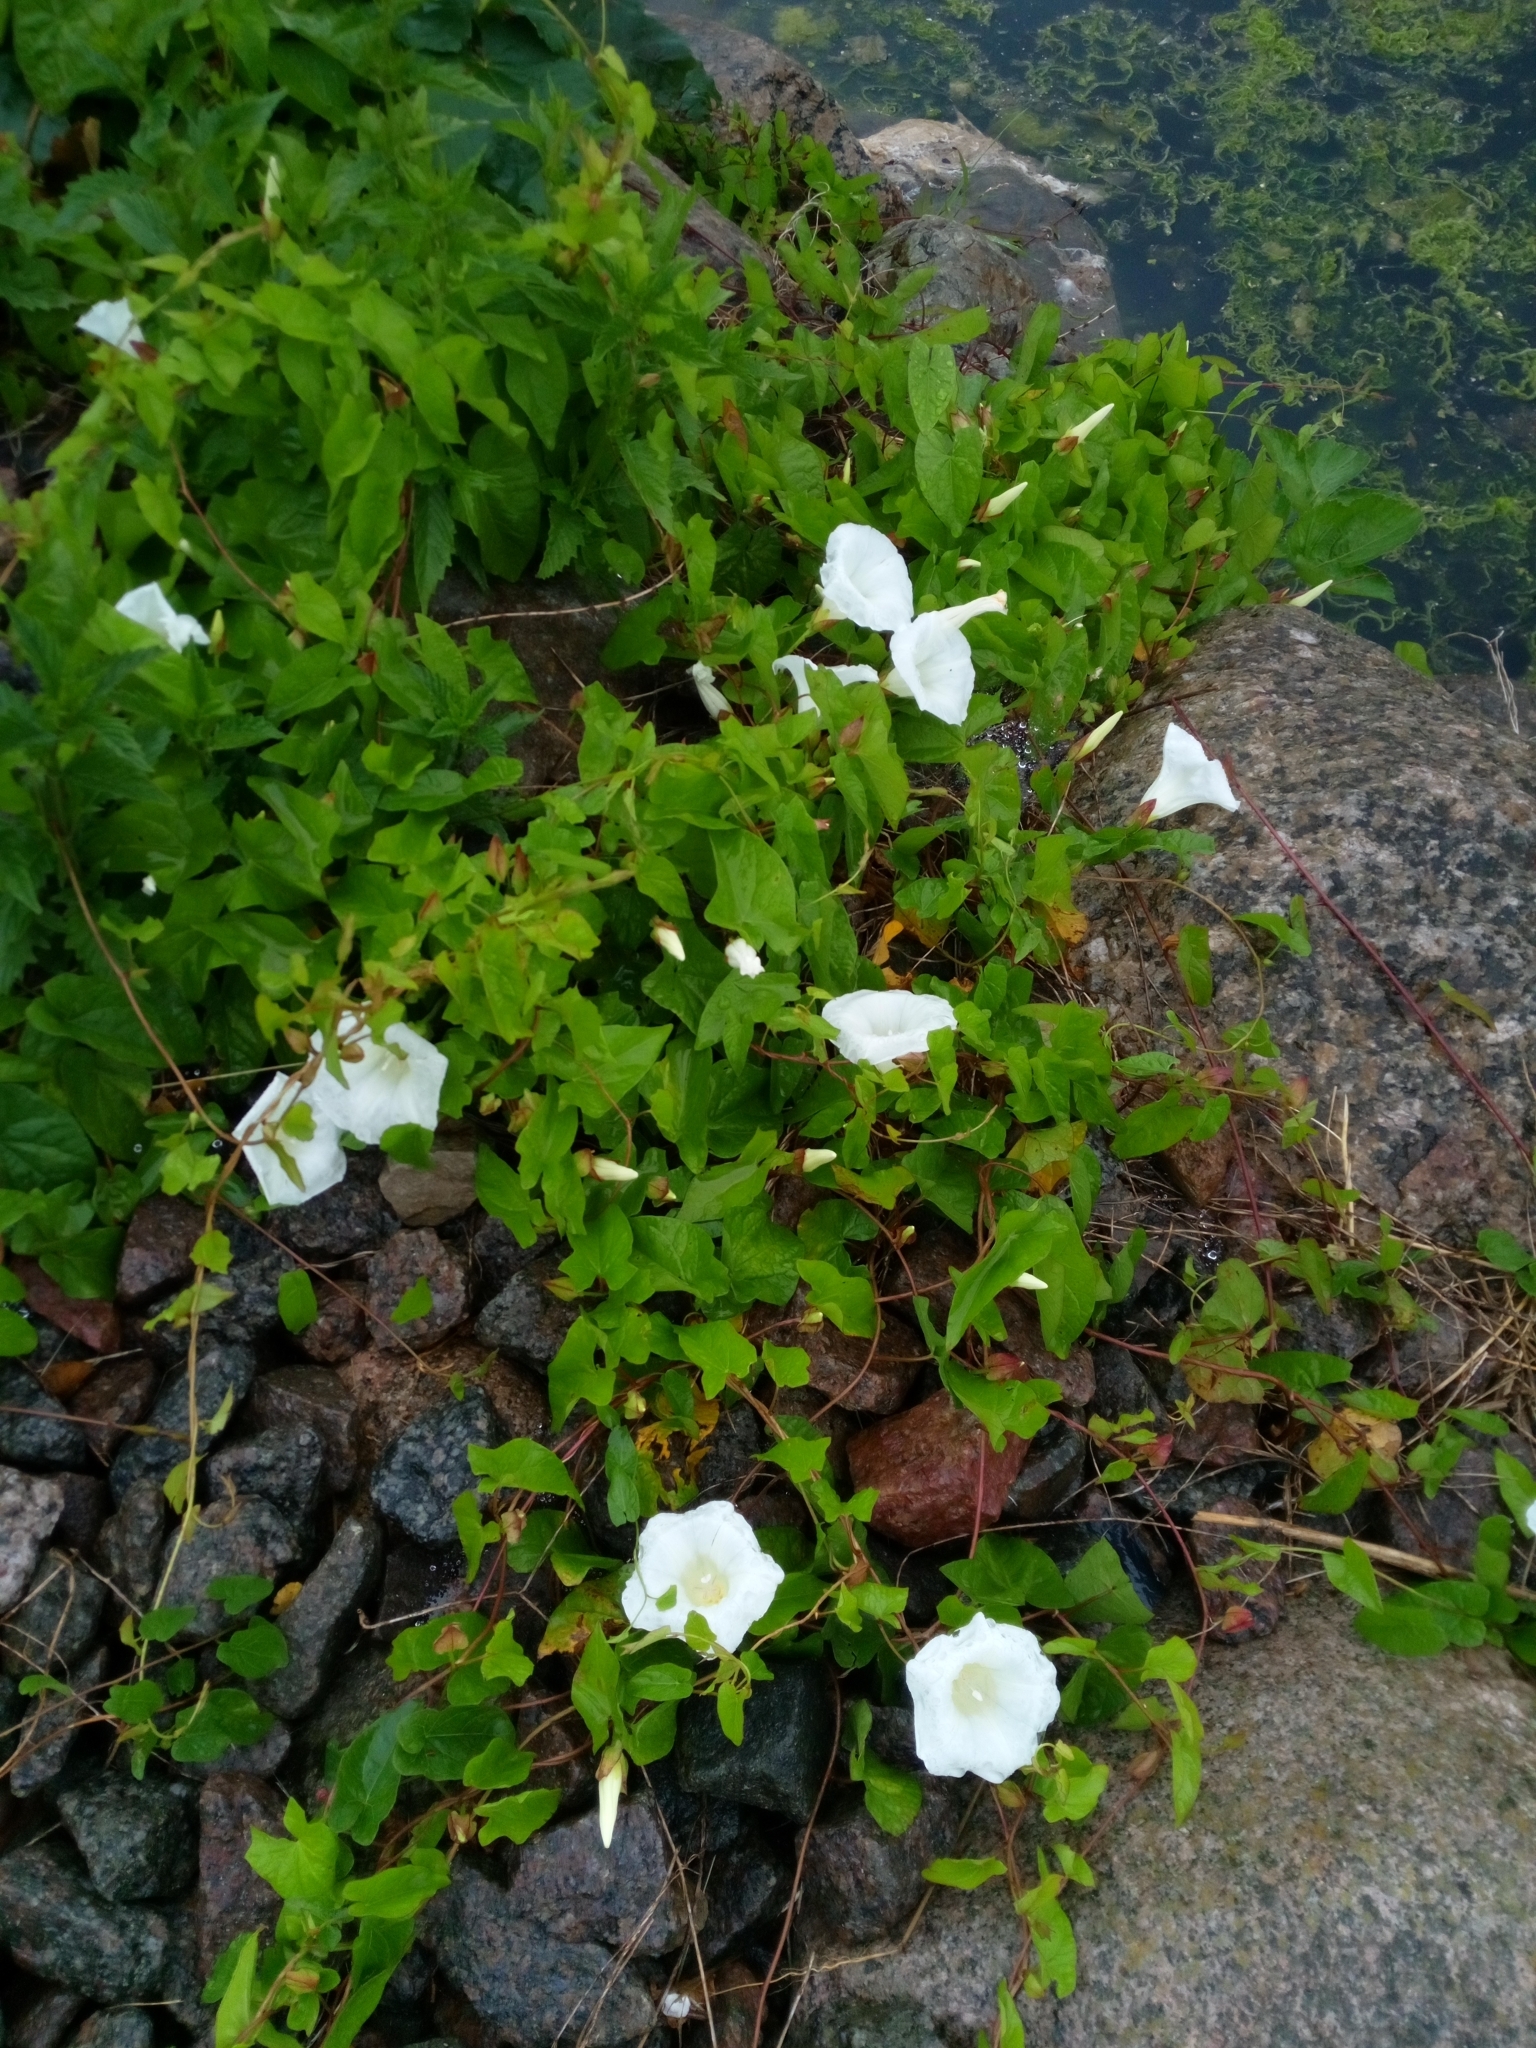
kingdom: Plantae
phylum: Tracheophyta
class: Magnoliopsida
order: Solanales
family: Convolvulaceae
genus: Calystegia
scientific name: Calystegia sepium
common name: Hedge bindweed
